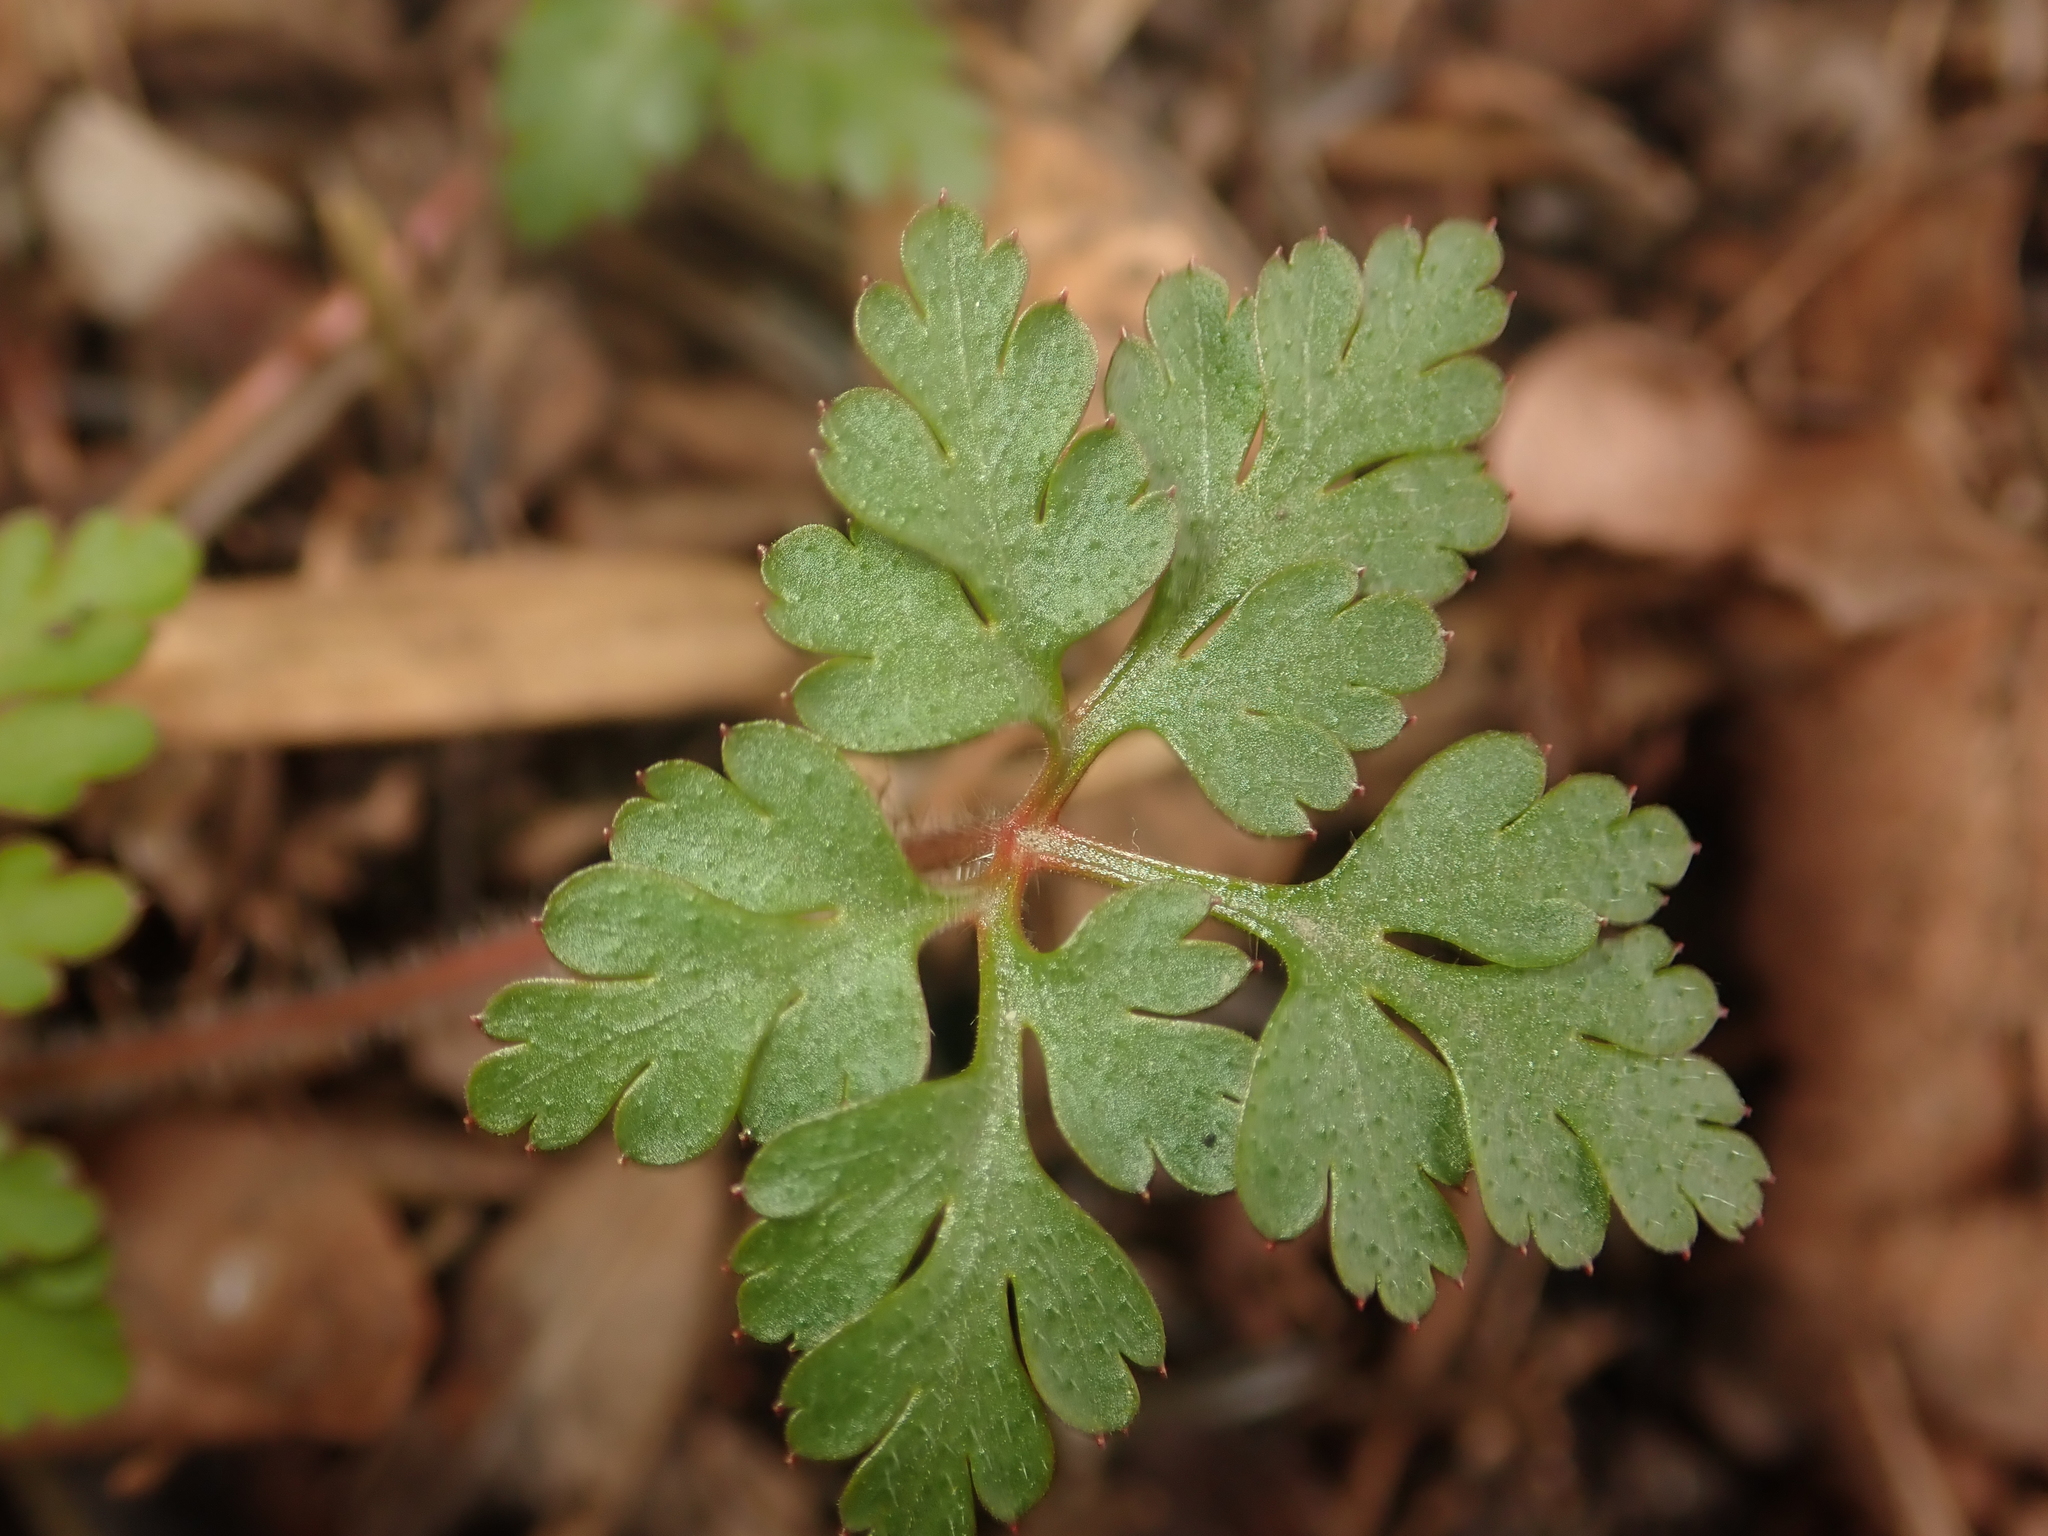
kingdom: Plantae
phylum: Tracheophyta
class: Magnoliopsida
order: Geraniales
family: Geraniaceae
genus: Geranium
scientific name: Geranium robertianum
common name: Herb-robert
